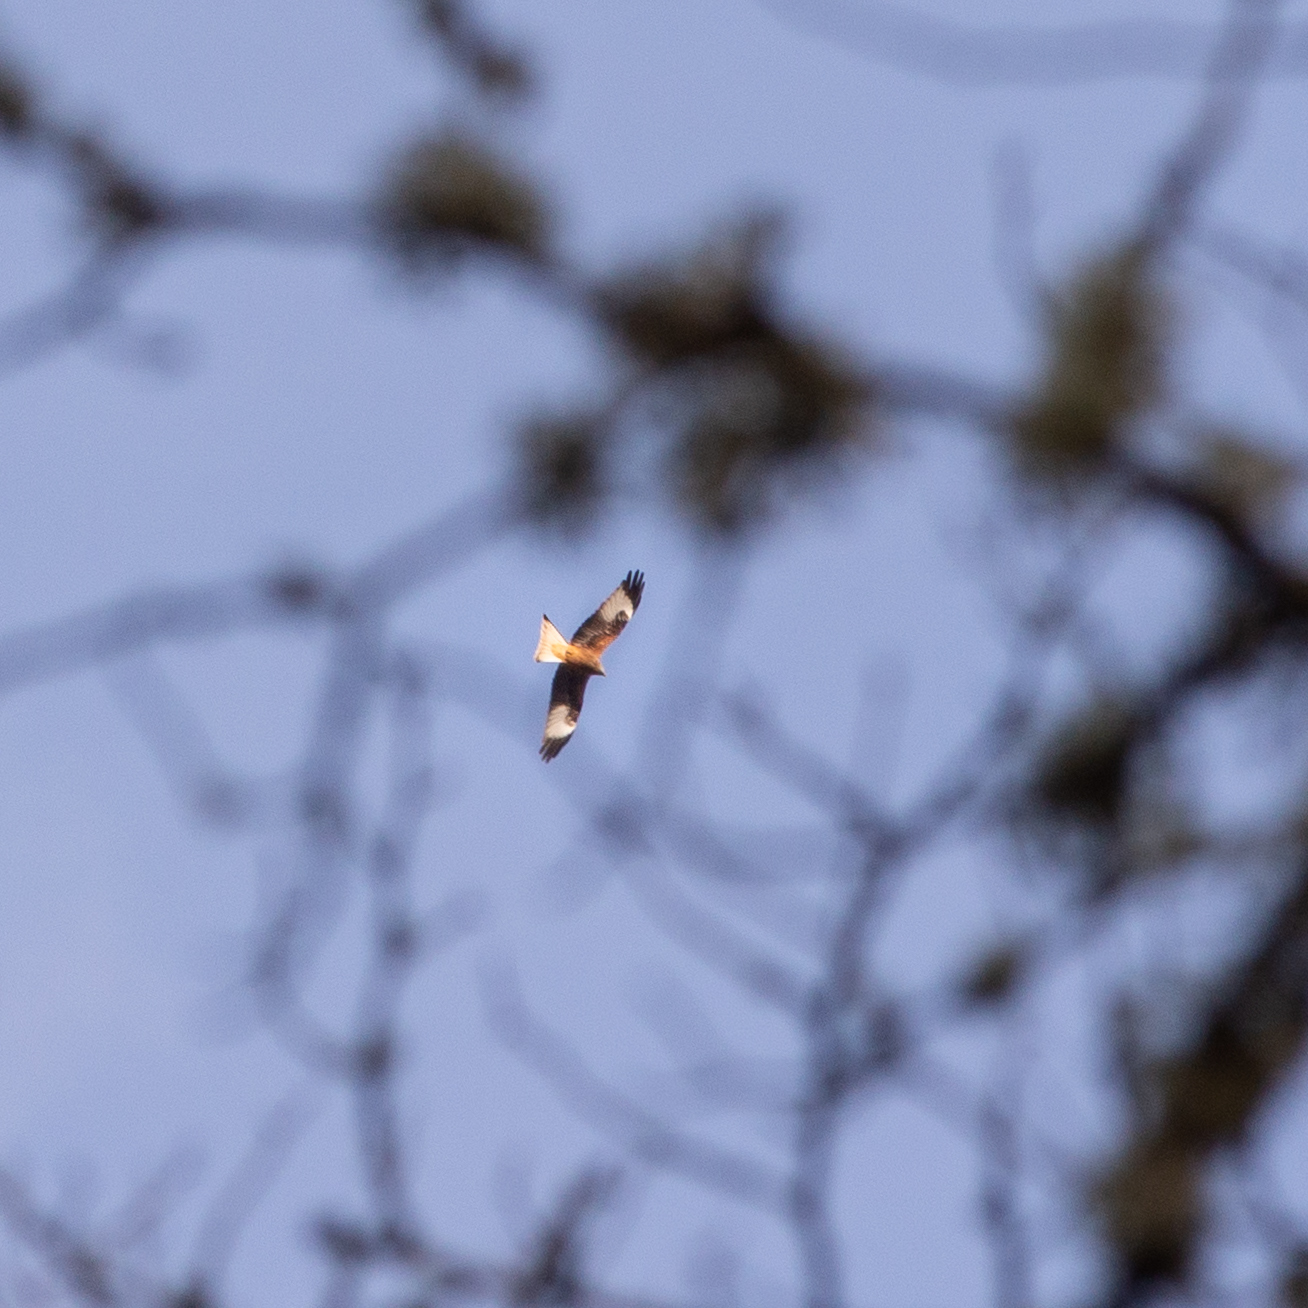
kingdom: Animalia
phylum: Chordata
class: Aves
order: Accipitriformes
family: Accipitridae
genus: Milvus
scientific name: Milvus milvus
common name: Red kite
